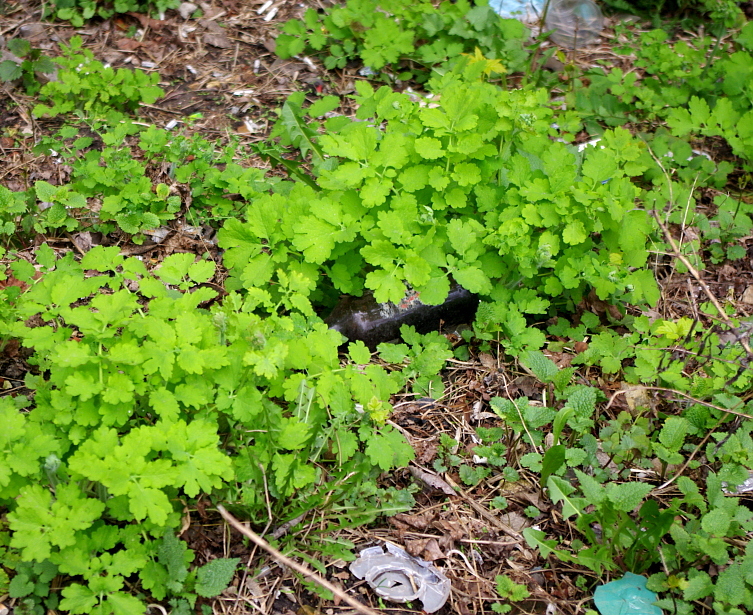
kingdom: Plantae
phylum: Tracheophyta
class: Magnoliopsida
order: Ranunculales
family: Papaveraceae
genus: Chelidonium
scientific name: Chelidonium majus
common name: Greater celandine
